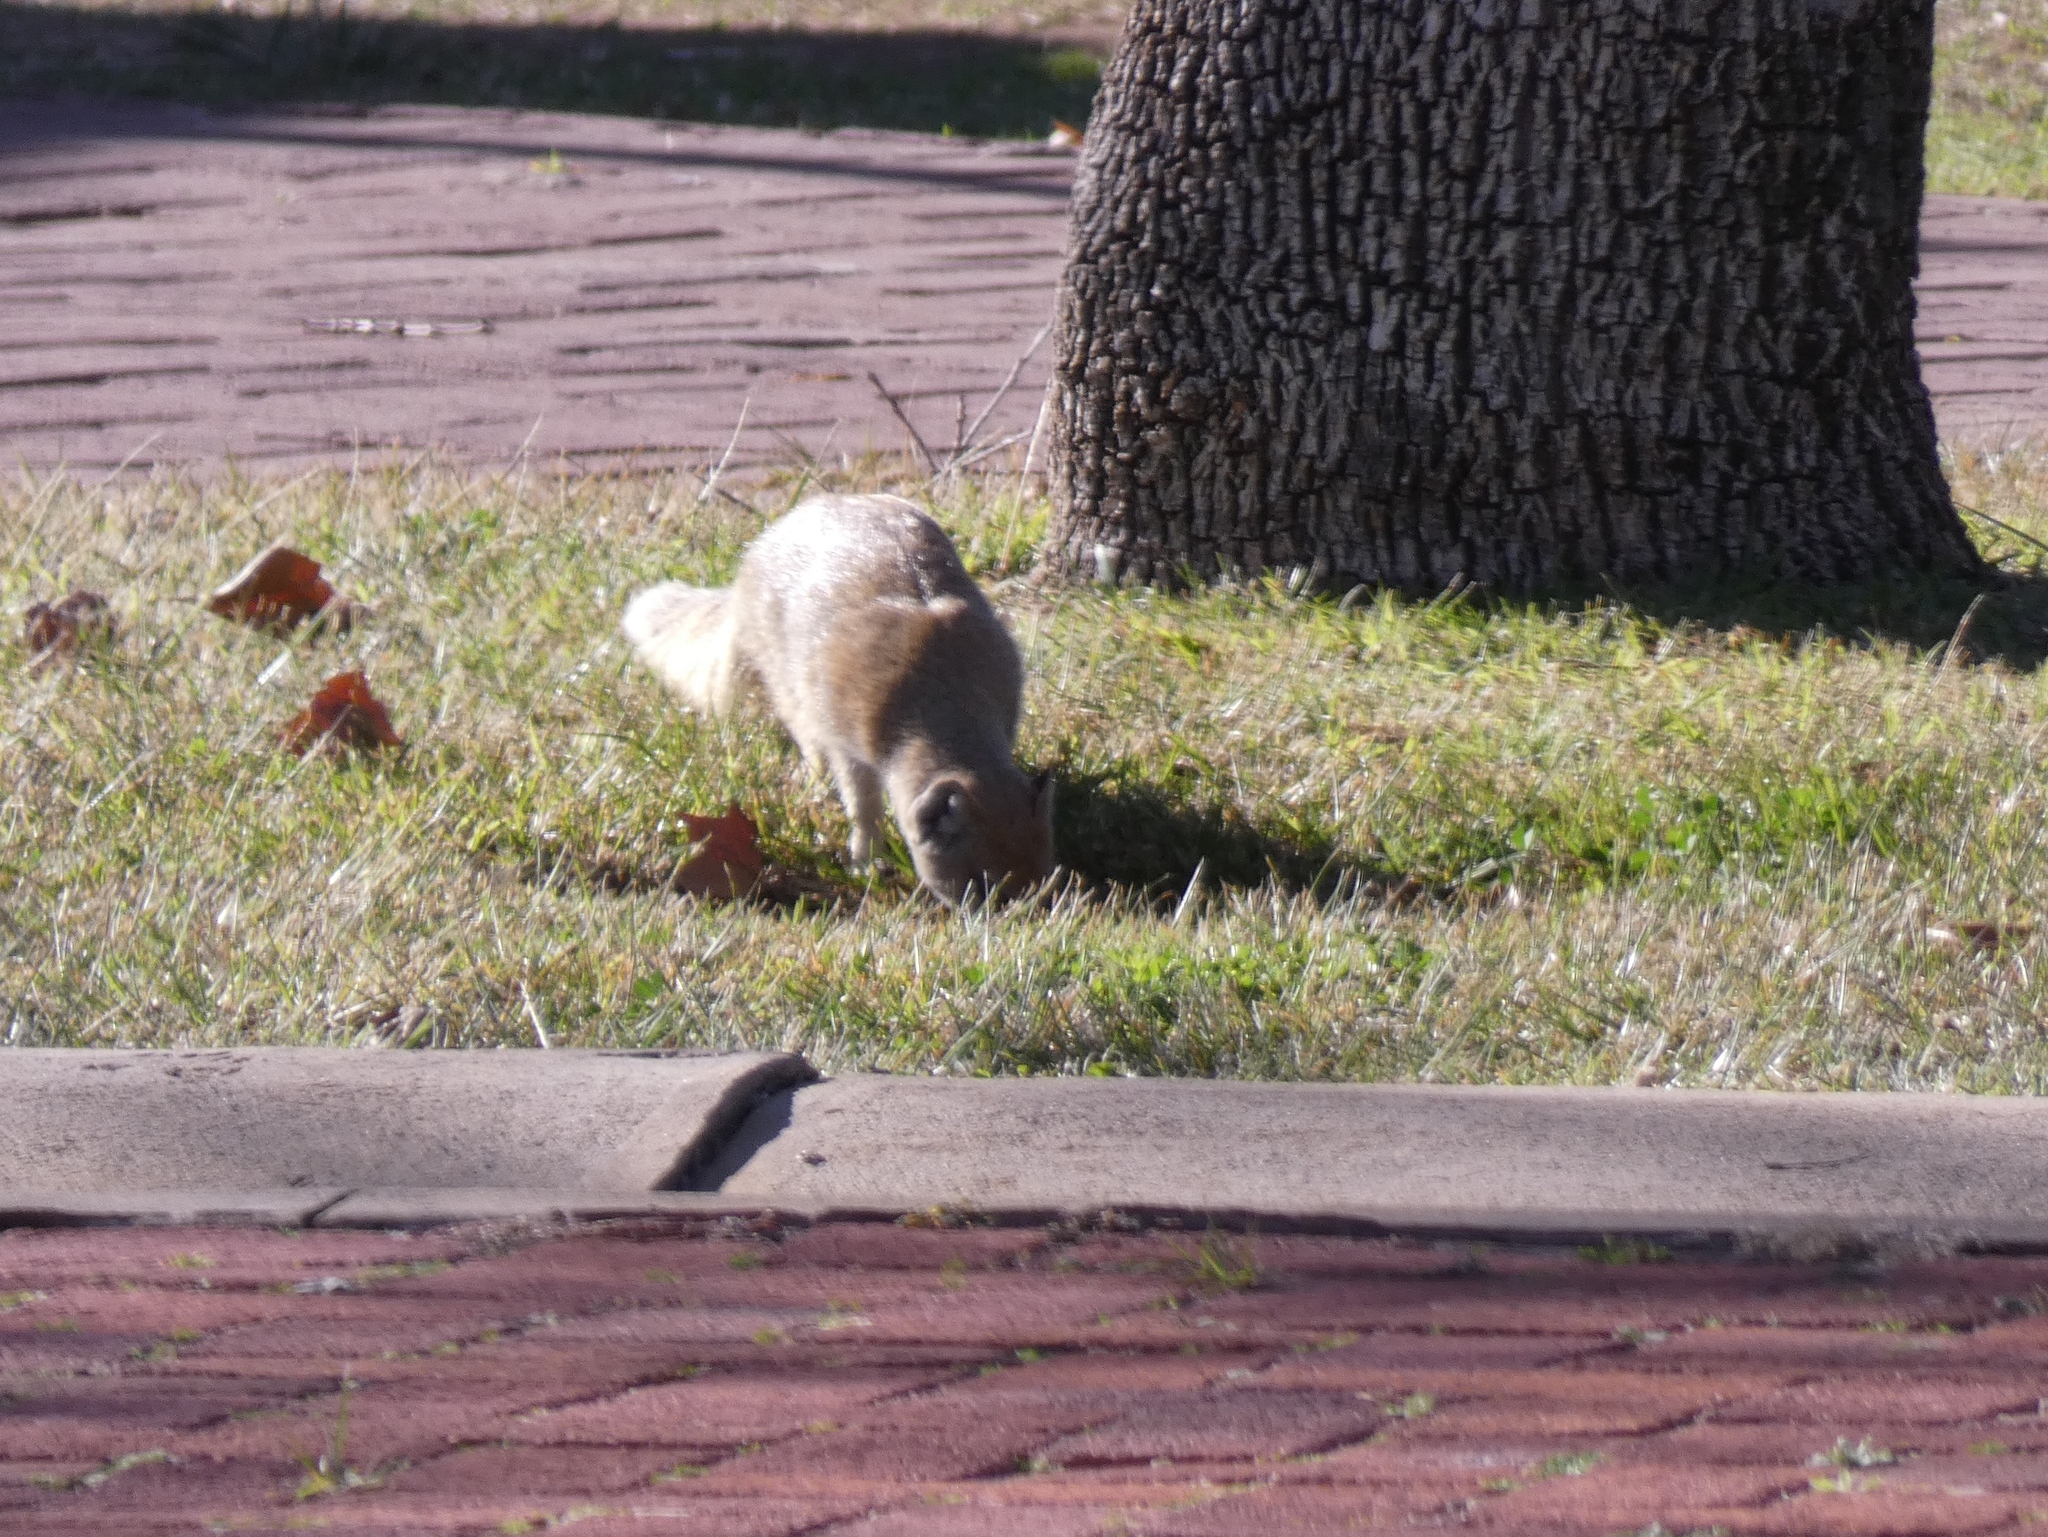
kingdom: Animalia
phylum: Chordata
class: Mammalia
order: Carnivora
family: Herpestidae
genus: Cynictis
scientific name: Cynictis penicillata
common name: Yellow mongoose
